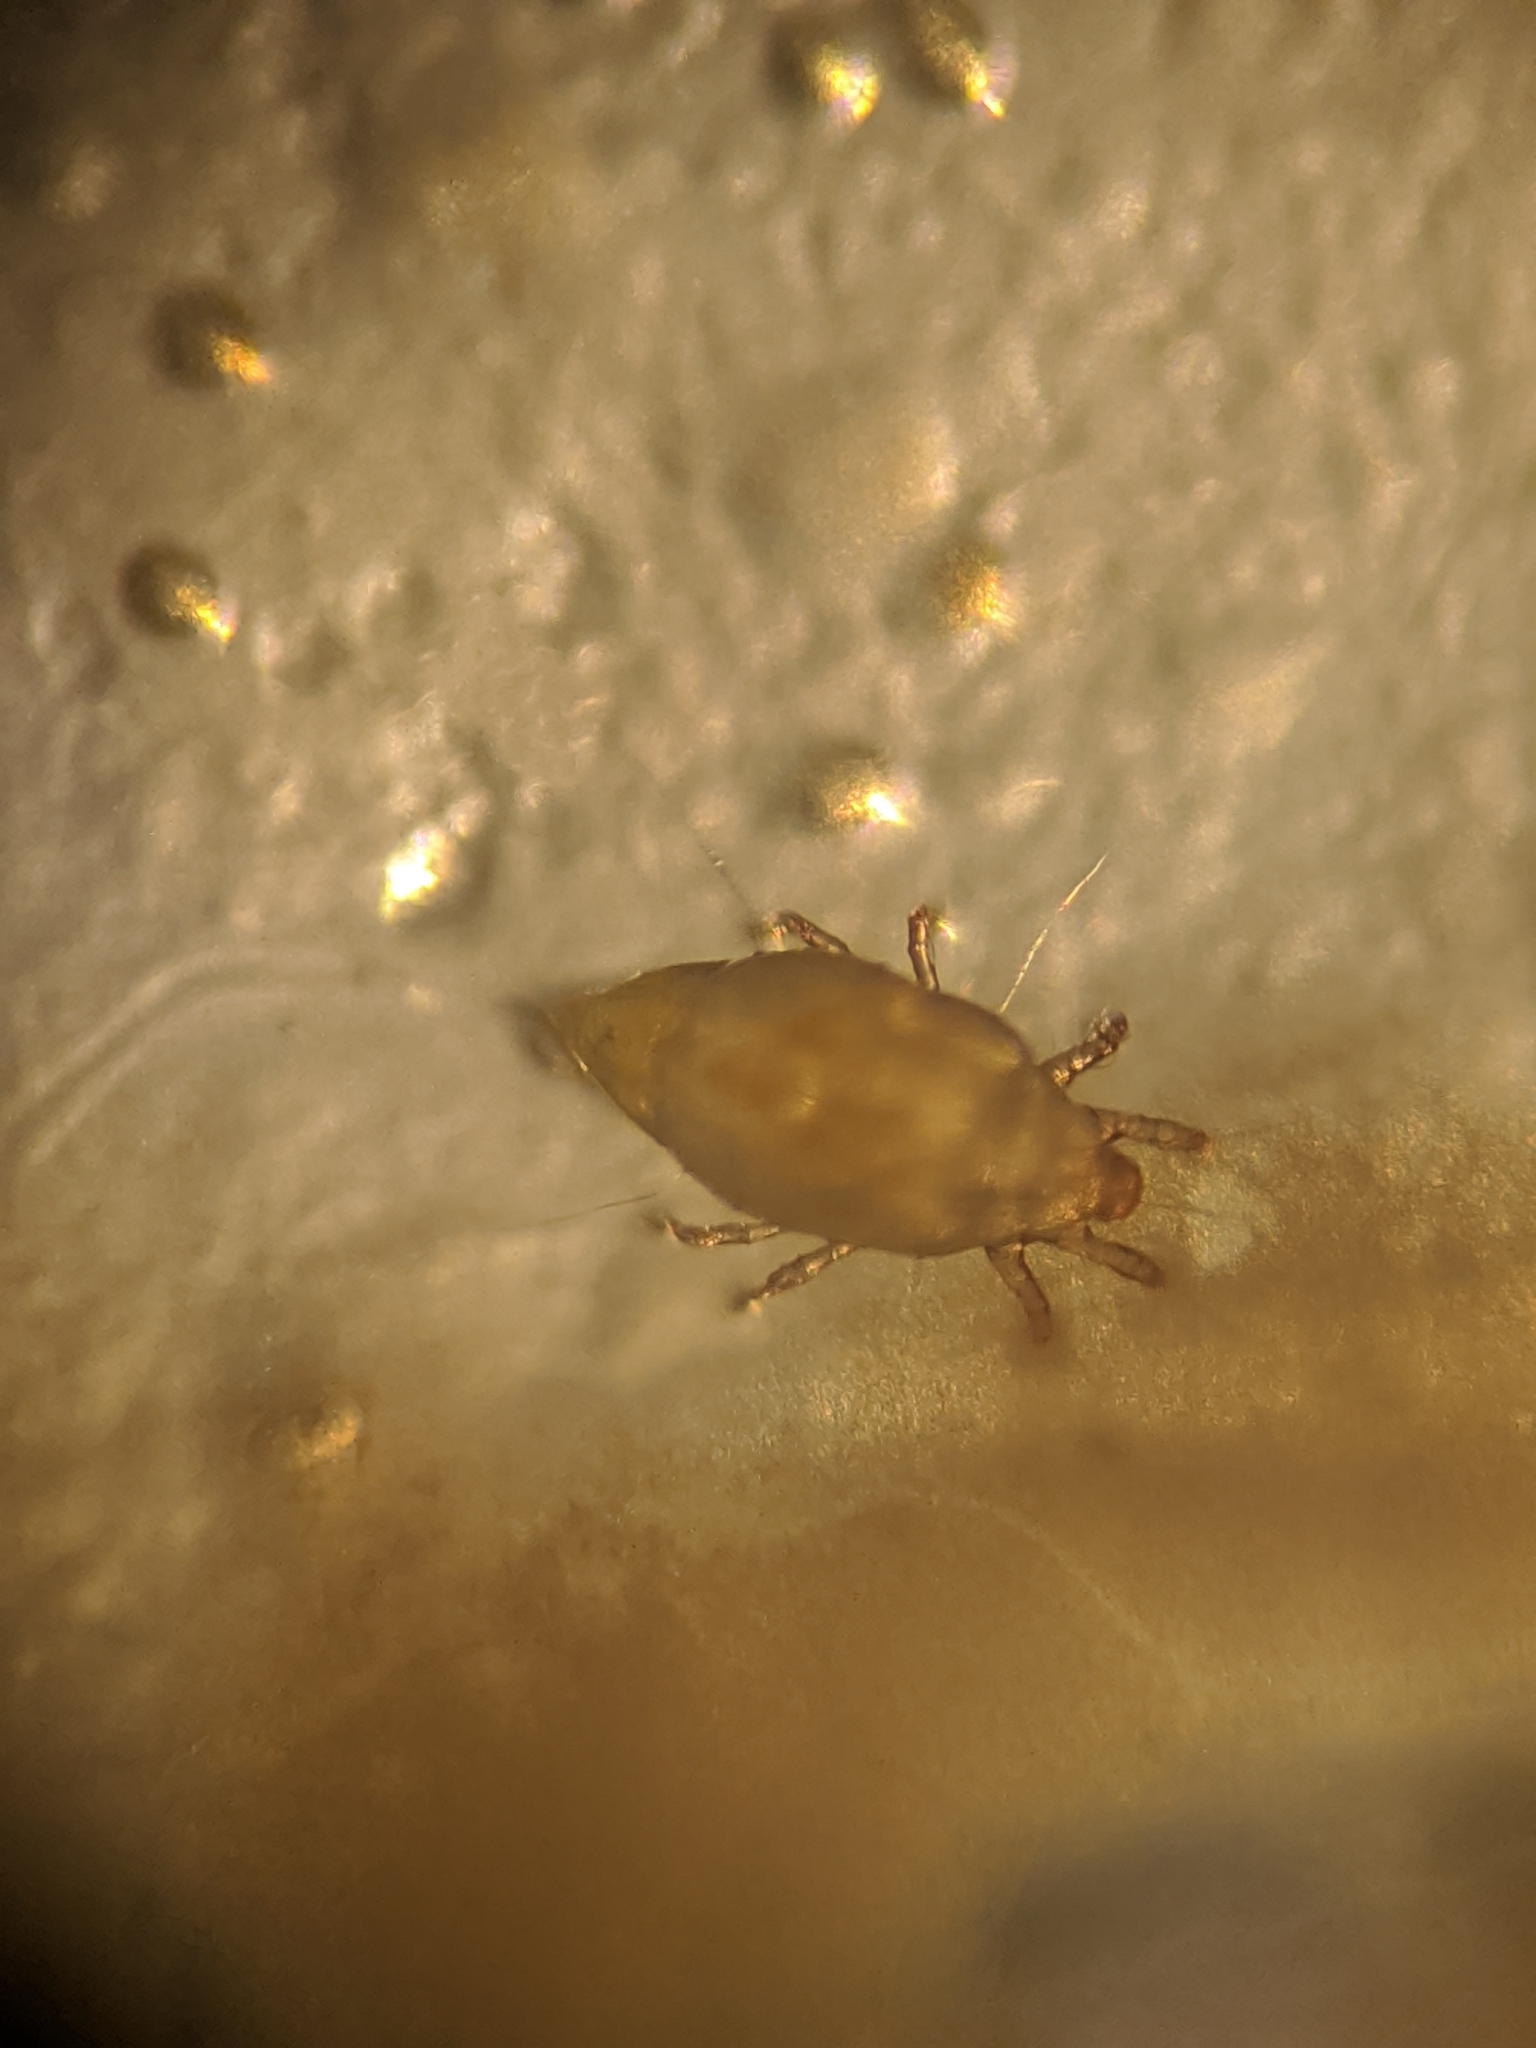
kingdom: Animalia
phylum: Arthropoda
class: Arachnida
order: Sarcoptiformes
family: Acaridae
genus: Tyrophagus
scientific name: Tyrophagus putrescentiae
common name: Mite
